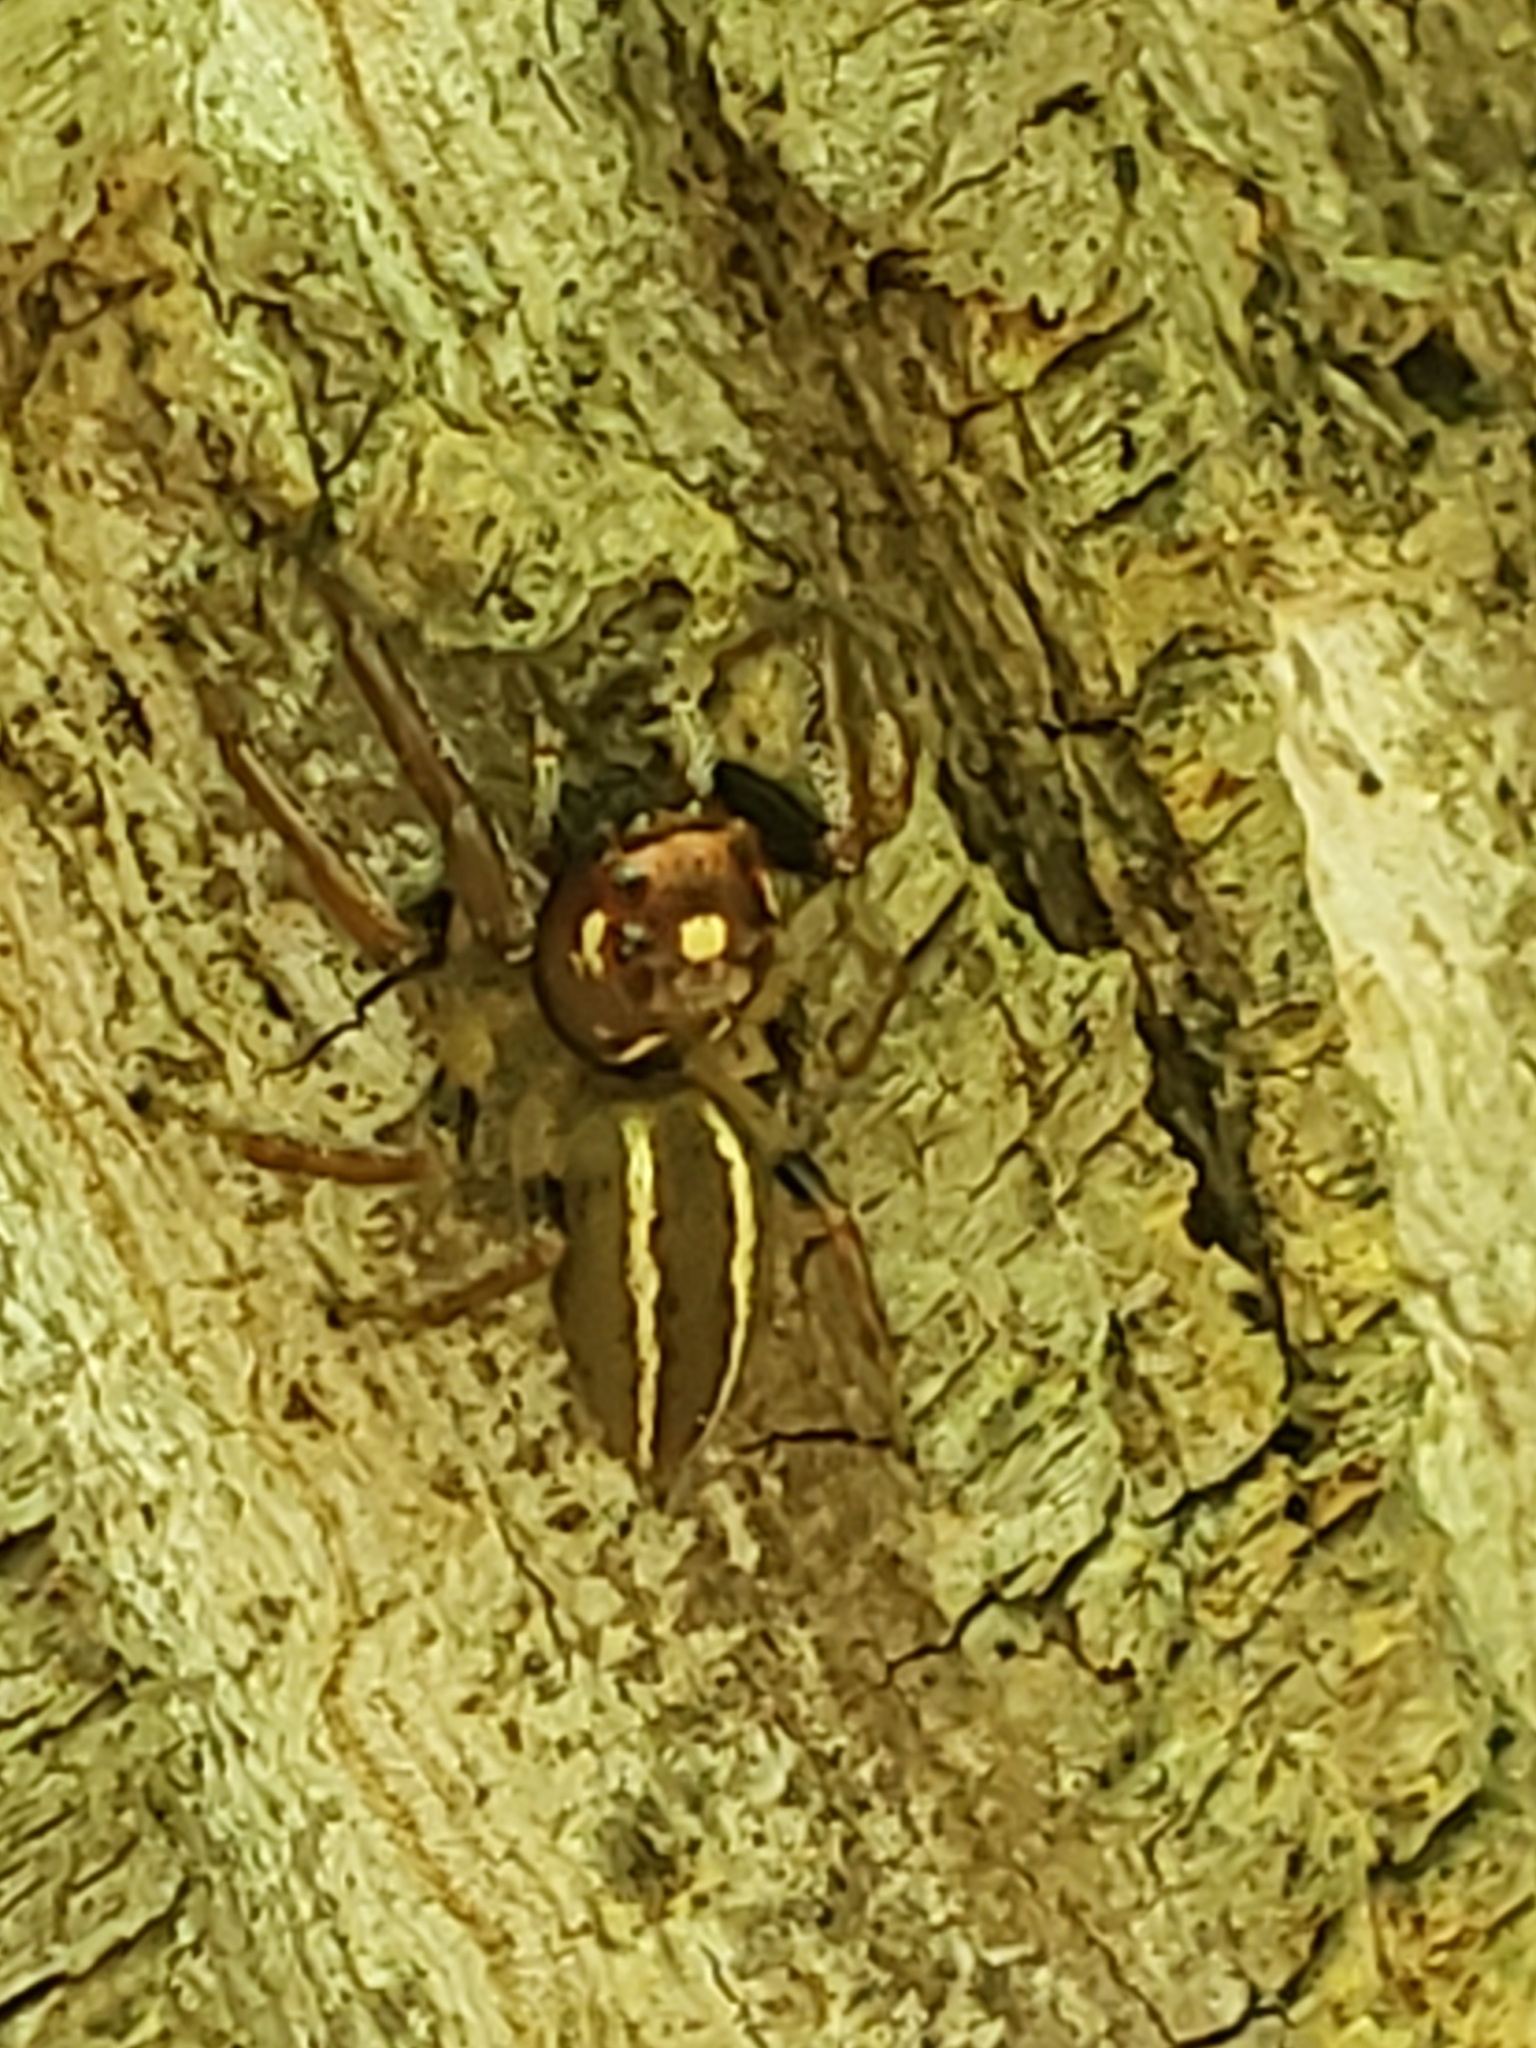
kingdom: Animalia
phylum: Arthropoda
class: Arachnida
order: Araneae
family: Salticidae
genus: Colonus
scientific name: Colonus sylvanus
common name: Jumping spiders
